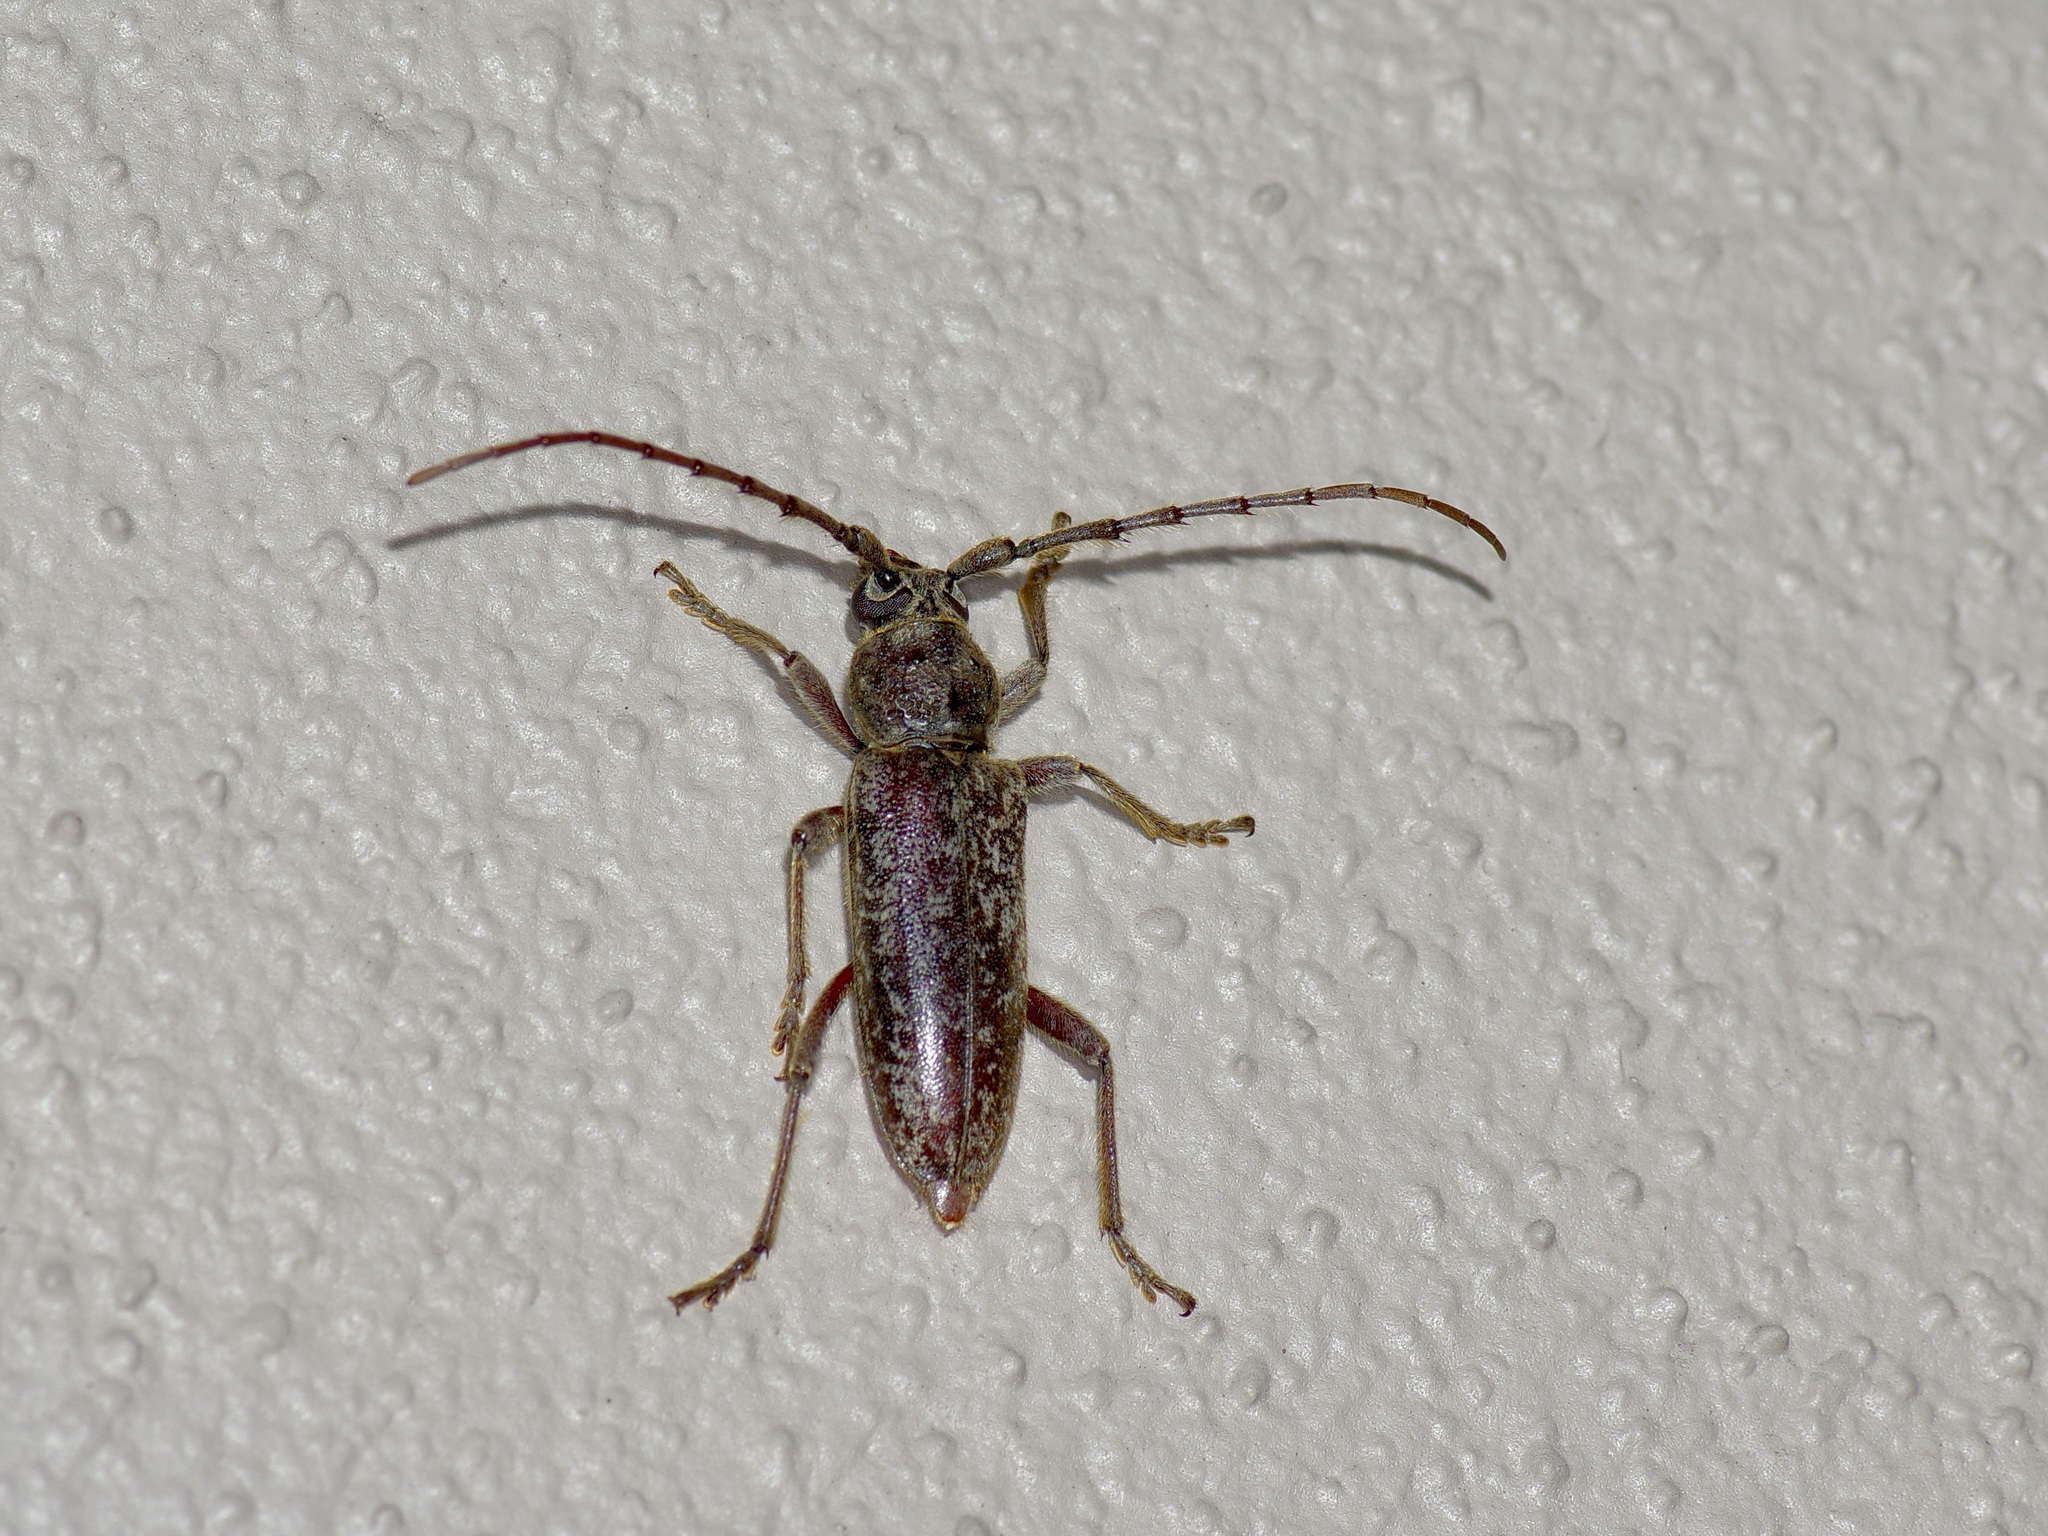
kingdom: Animalia
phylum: Arthropoda
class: Insecta
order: Coleoptera
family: Cerambycidae
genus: Enaphalodes
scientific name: Enaphalodes atomarius
